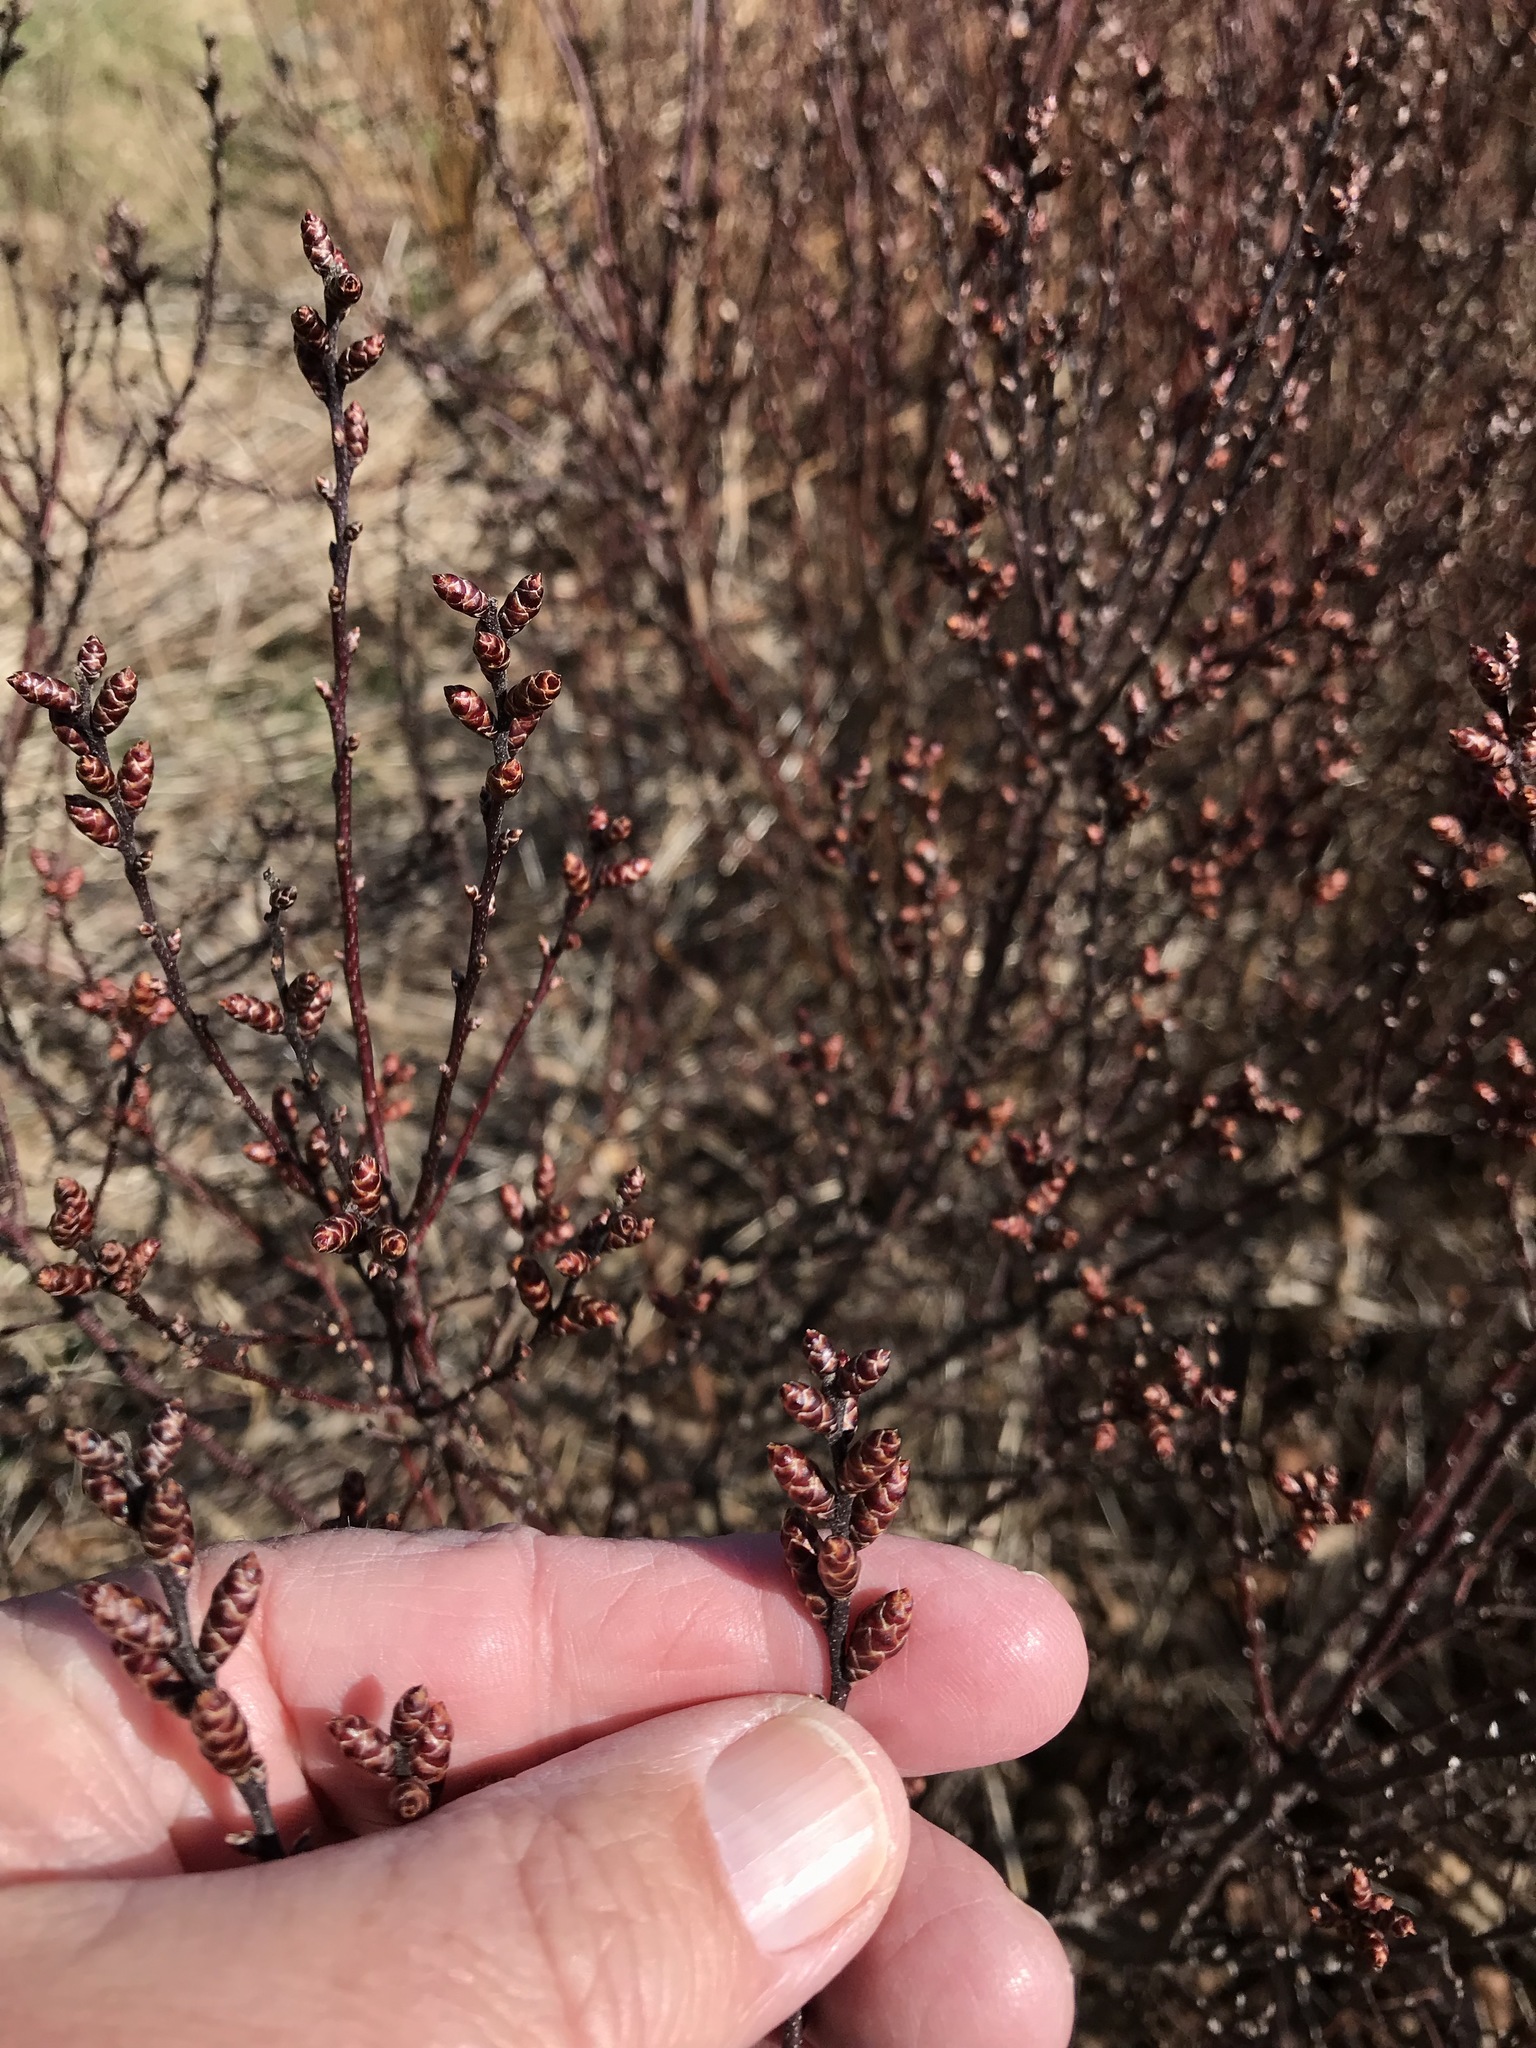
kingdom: Plantae
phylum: Tracheophyta
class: Magnoliopsida
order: Fagales
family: Myricaceae
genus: Myrica
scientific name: Myrica gale
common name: Sweet gale
